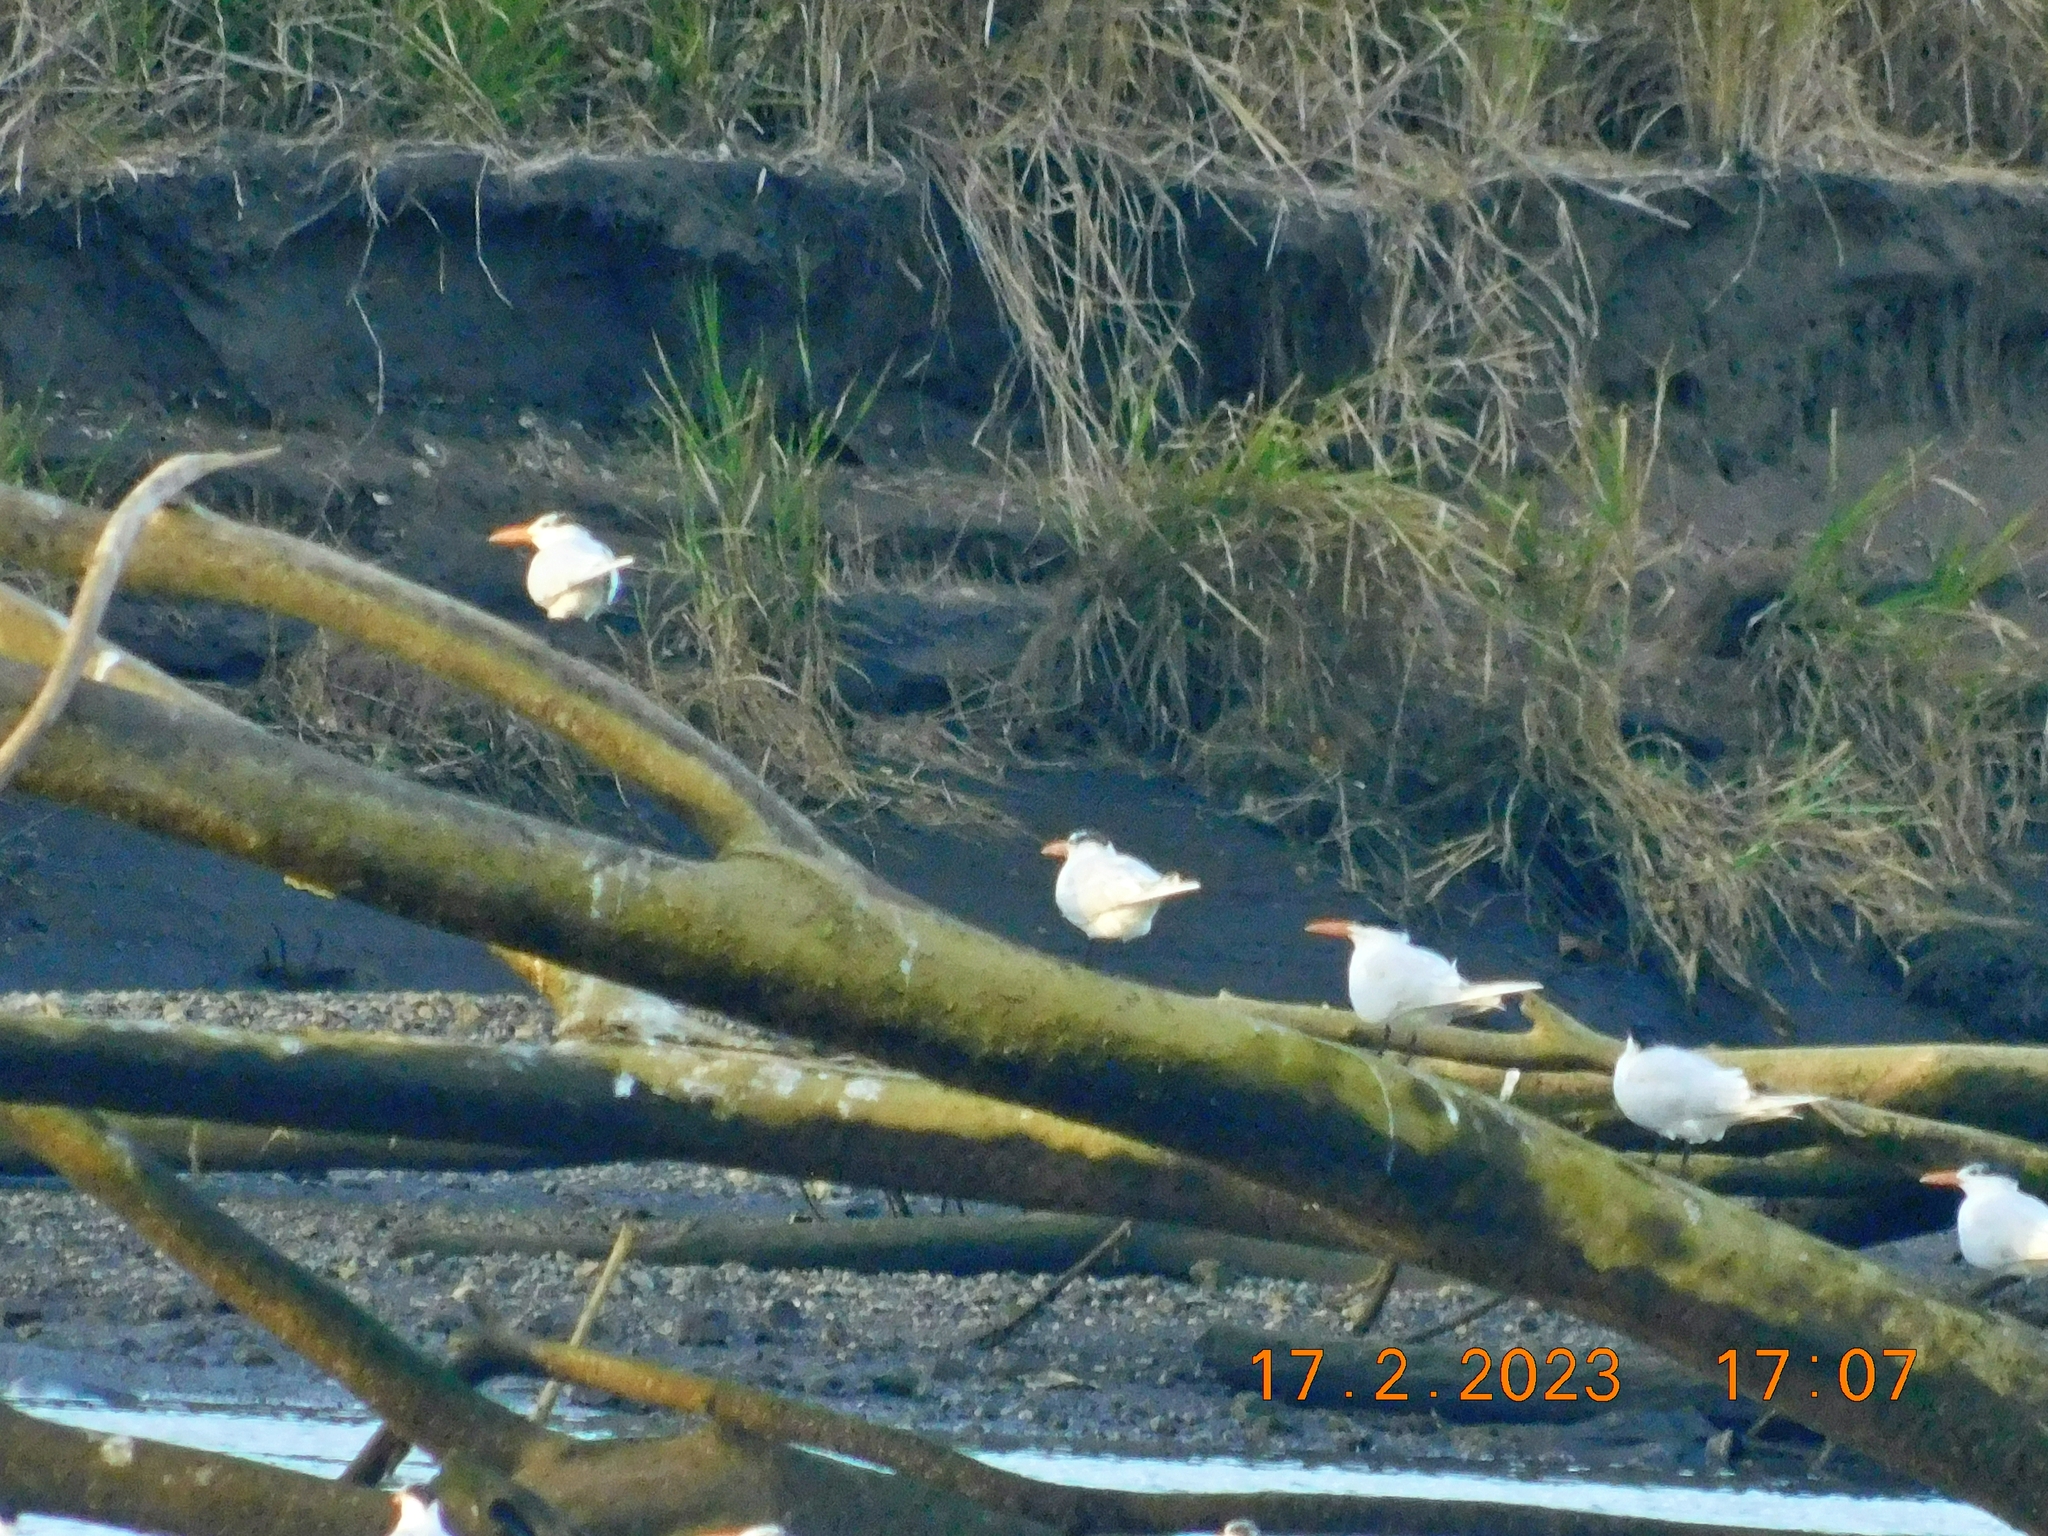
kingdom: Animalia
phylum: Chordata
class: Aves
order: Charadriiformes
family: Laridae
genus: Thalasseus
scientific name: Thalasseus maximus
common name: Royal tern
